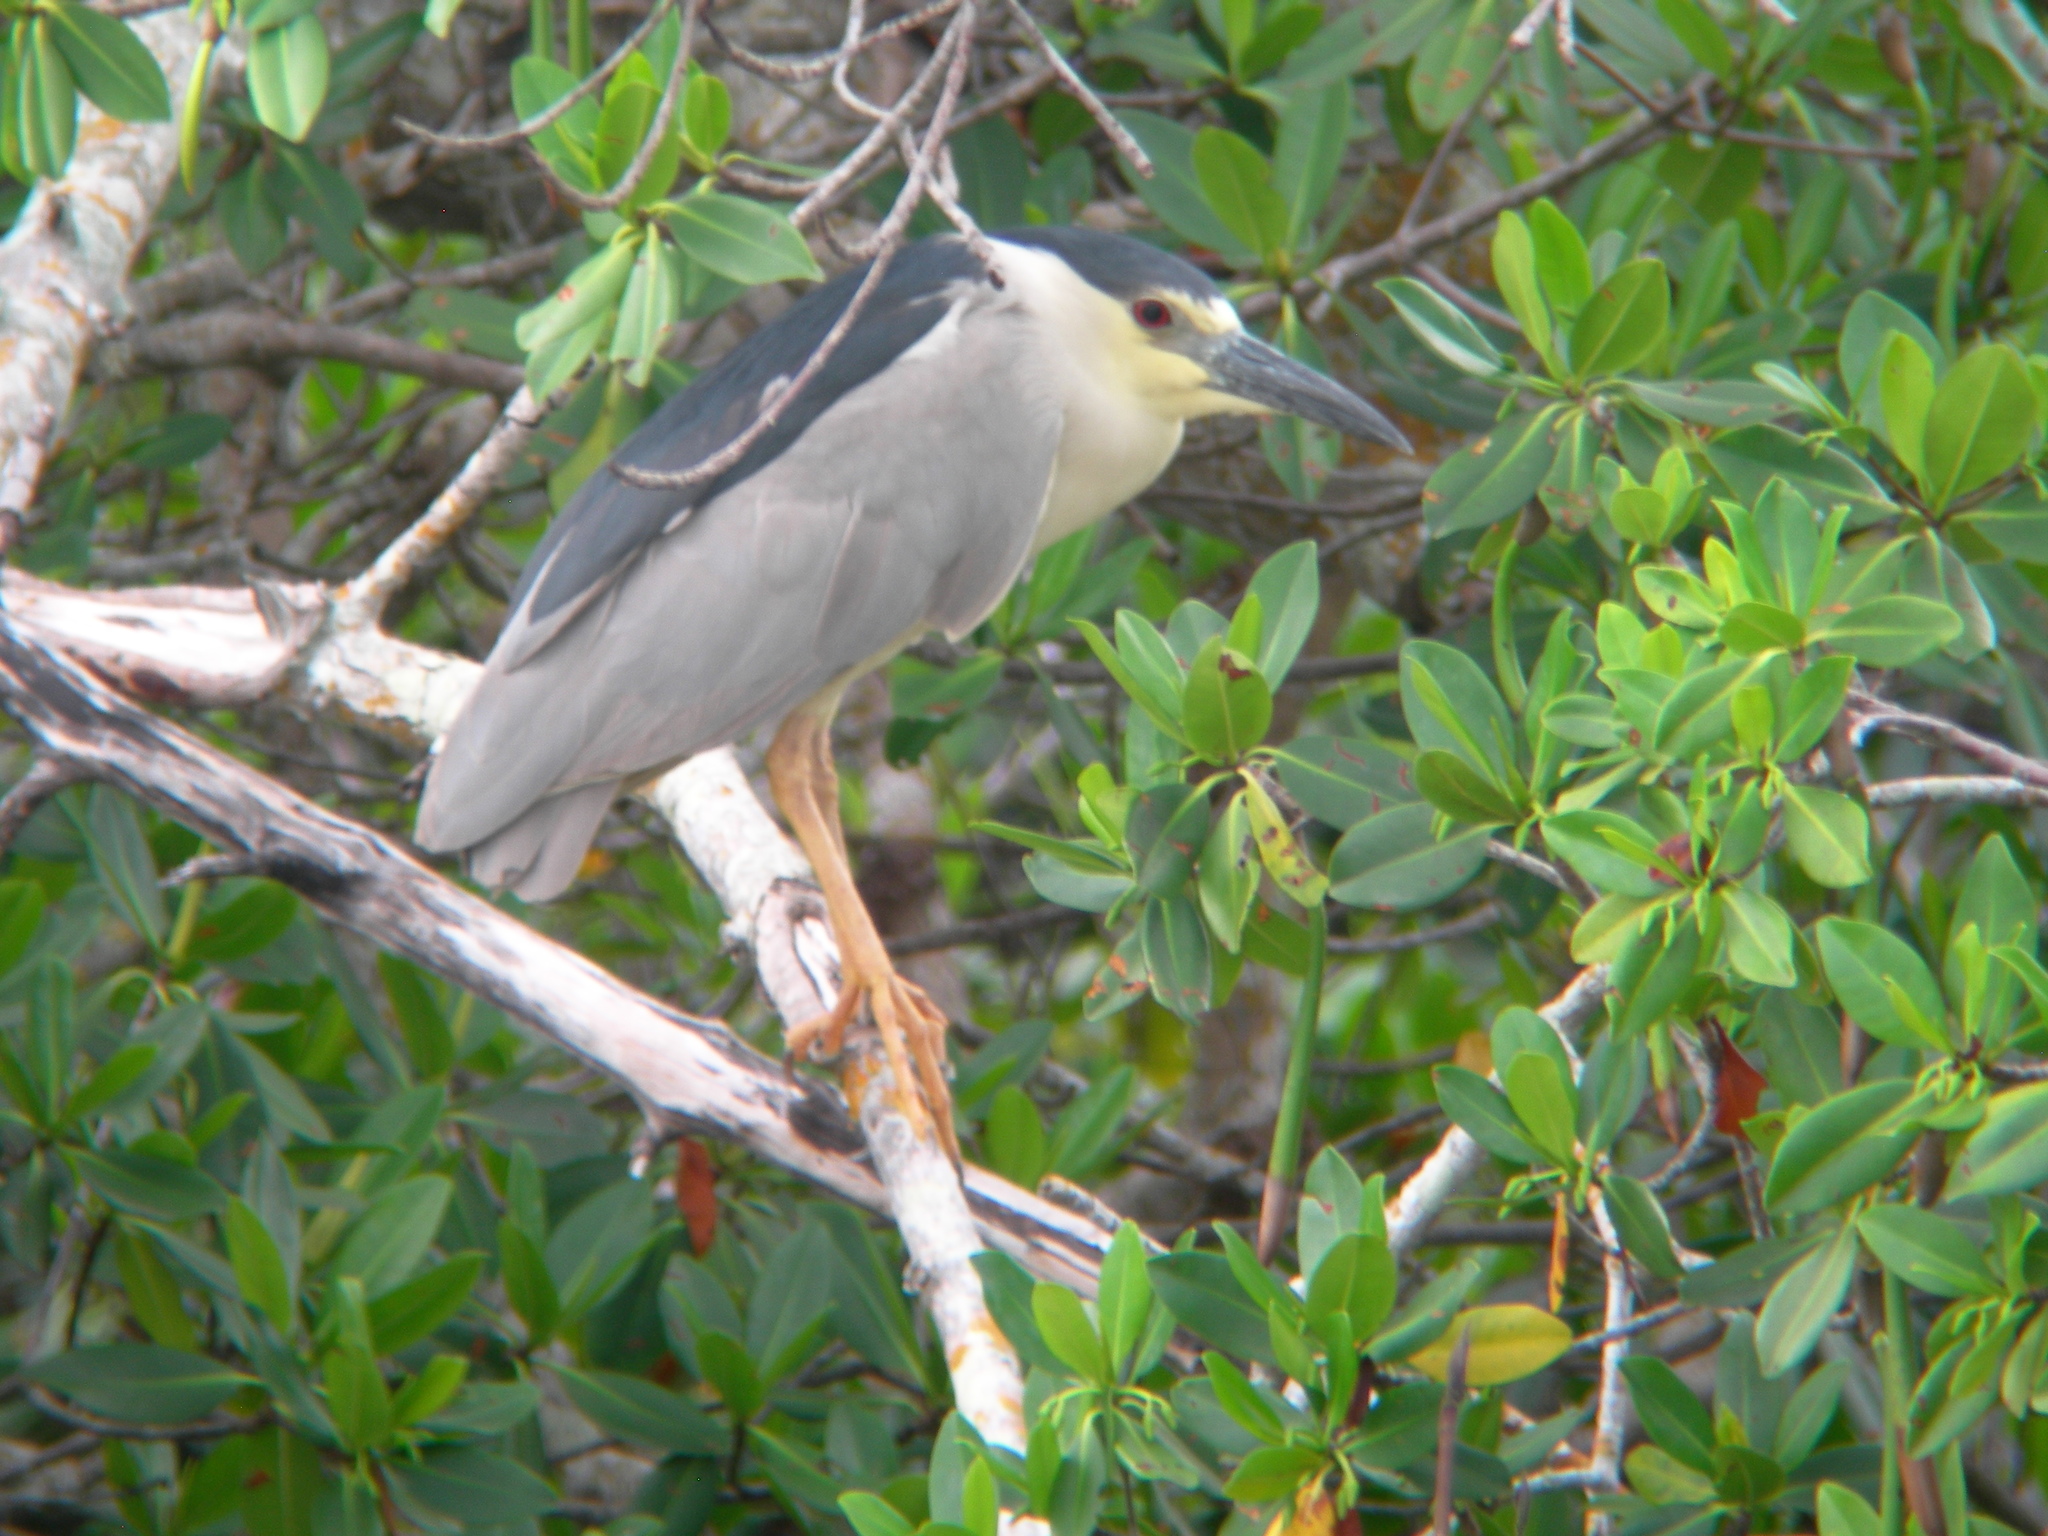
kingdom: Animalia
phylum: Chordata
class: Aves
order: Pelecaniformes
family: Ardeidae
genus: Nycticorax
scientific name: Nycticorax nycticorax
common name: Black-crowned night heron
